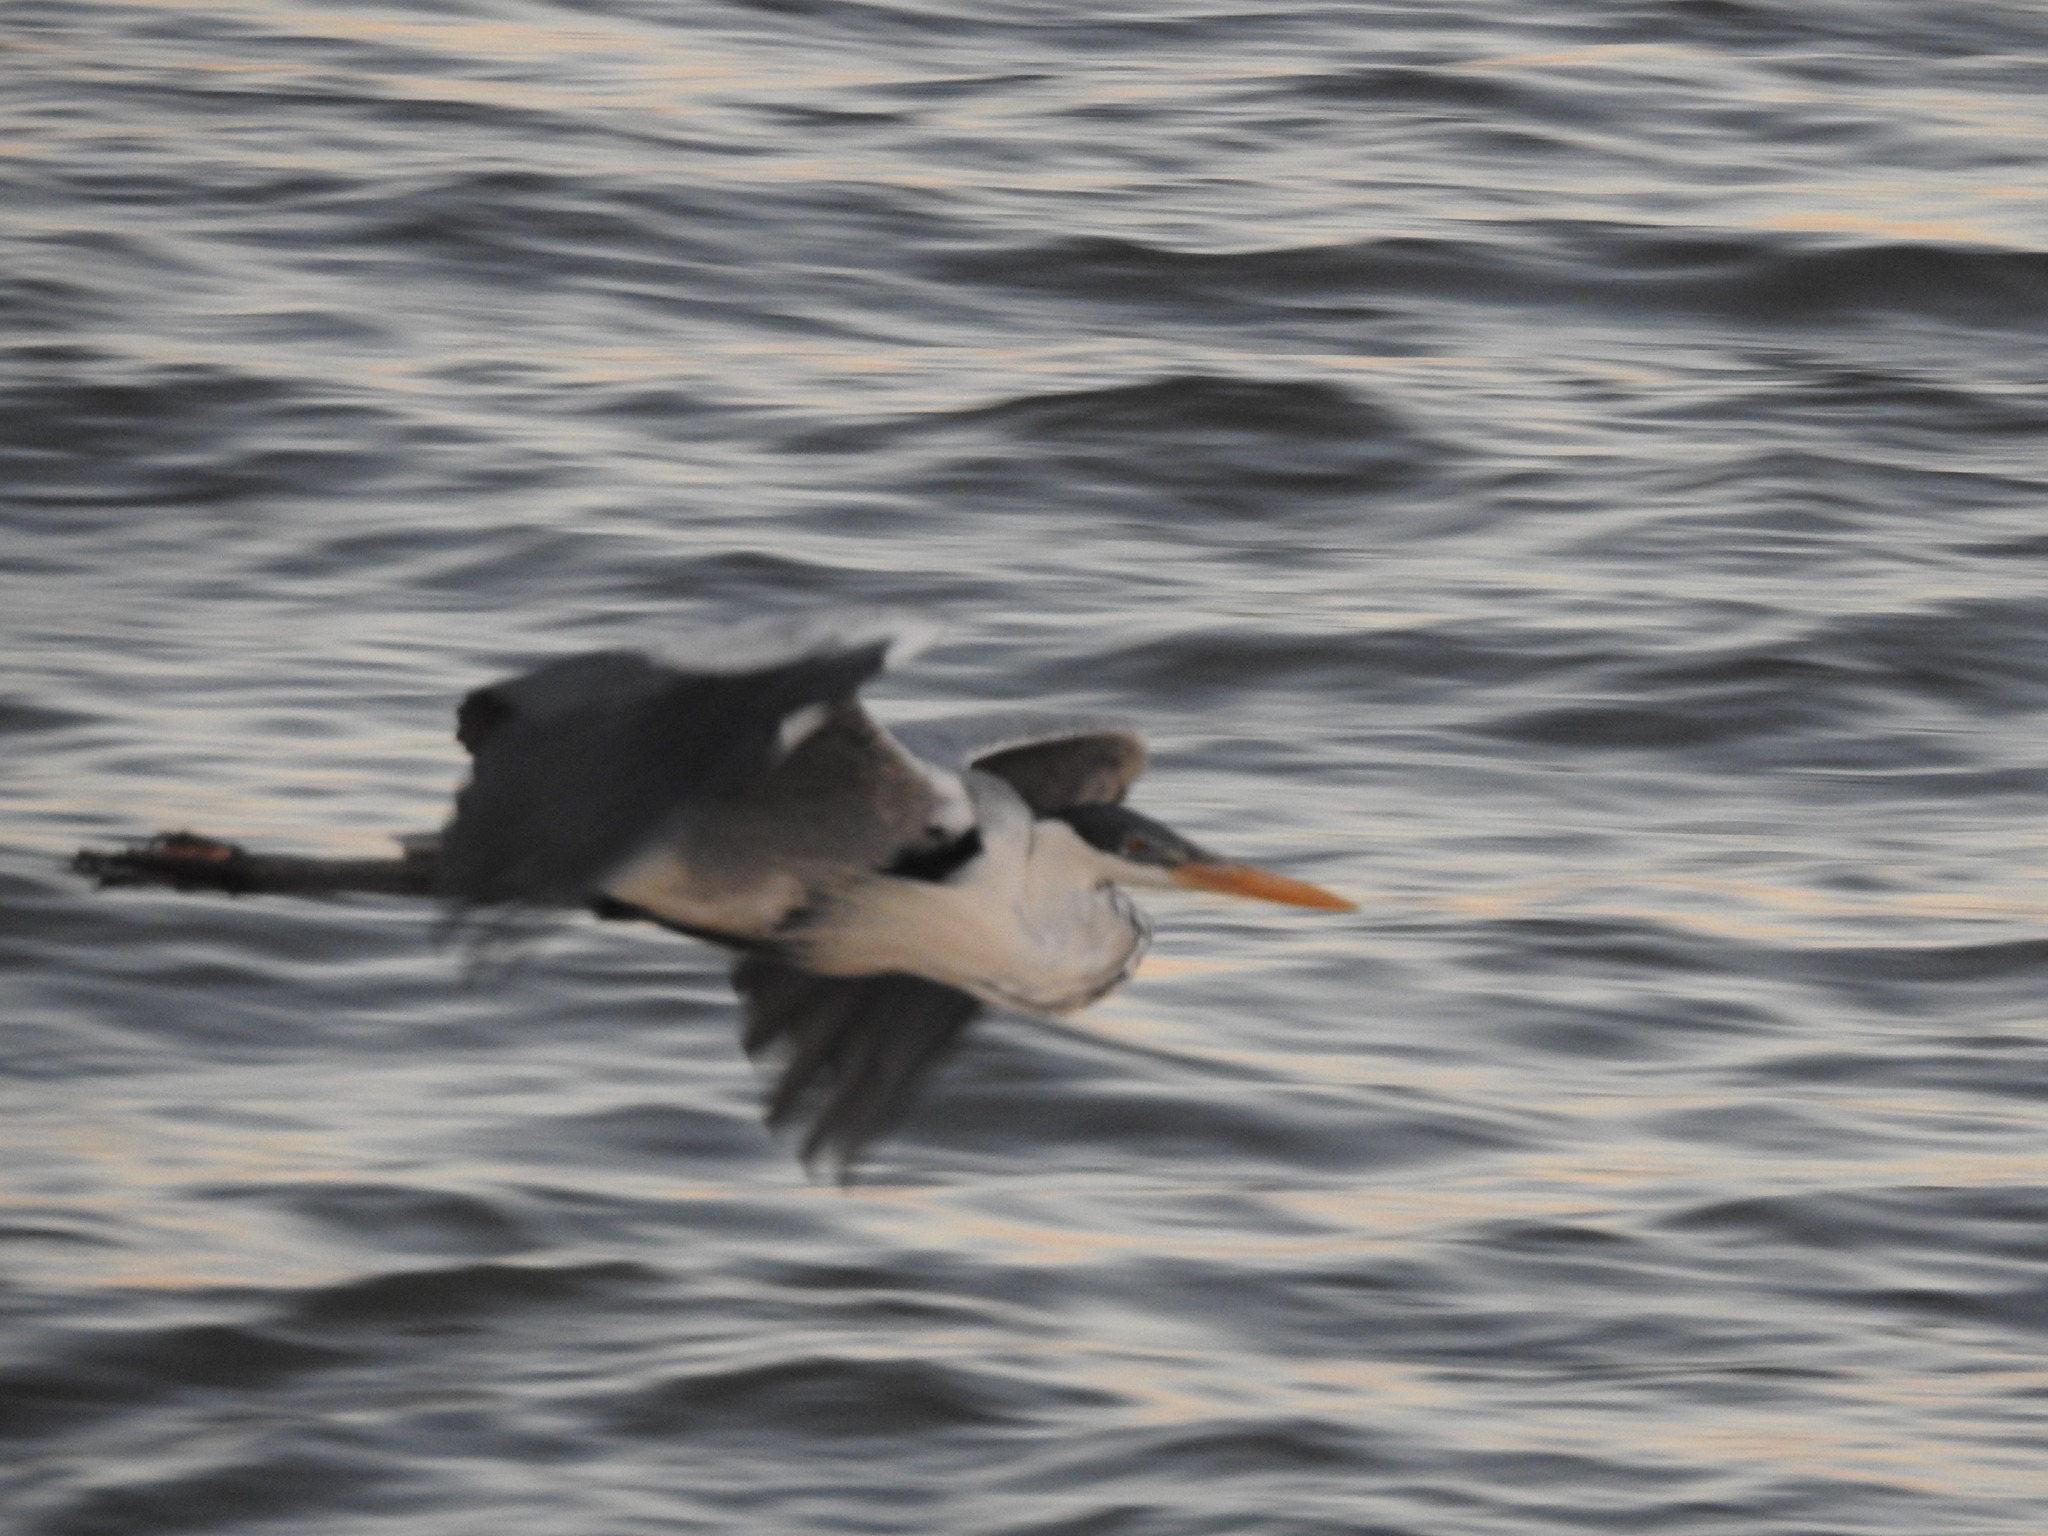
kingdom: Animalia
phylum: Chordata
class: Aves
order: Pelecaniformes
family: Ardeidae
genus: Ardea
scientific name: Ardea cocoi
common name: Cocoi heron
